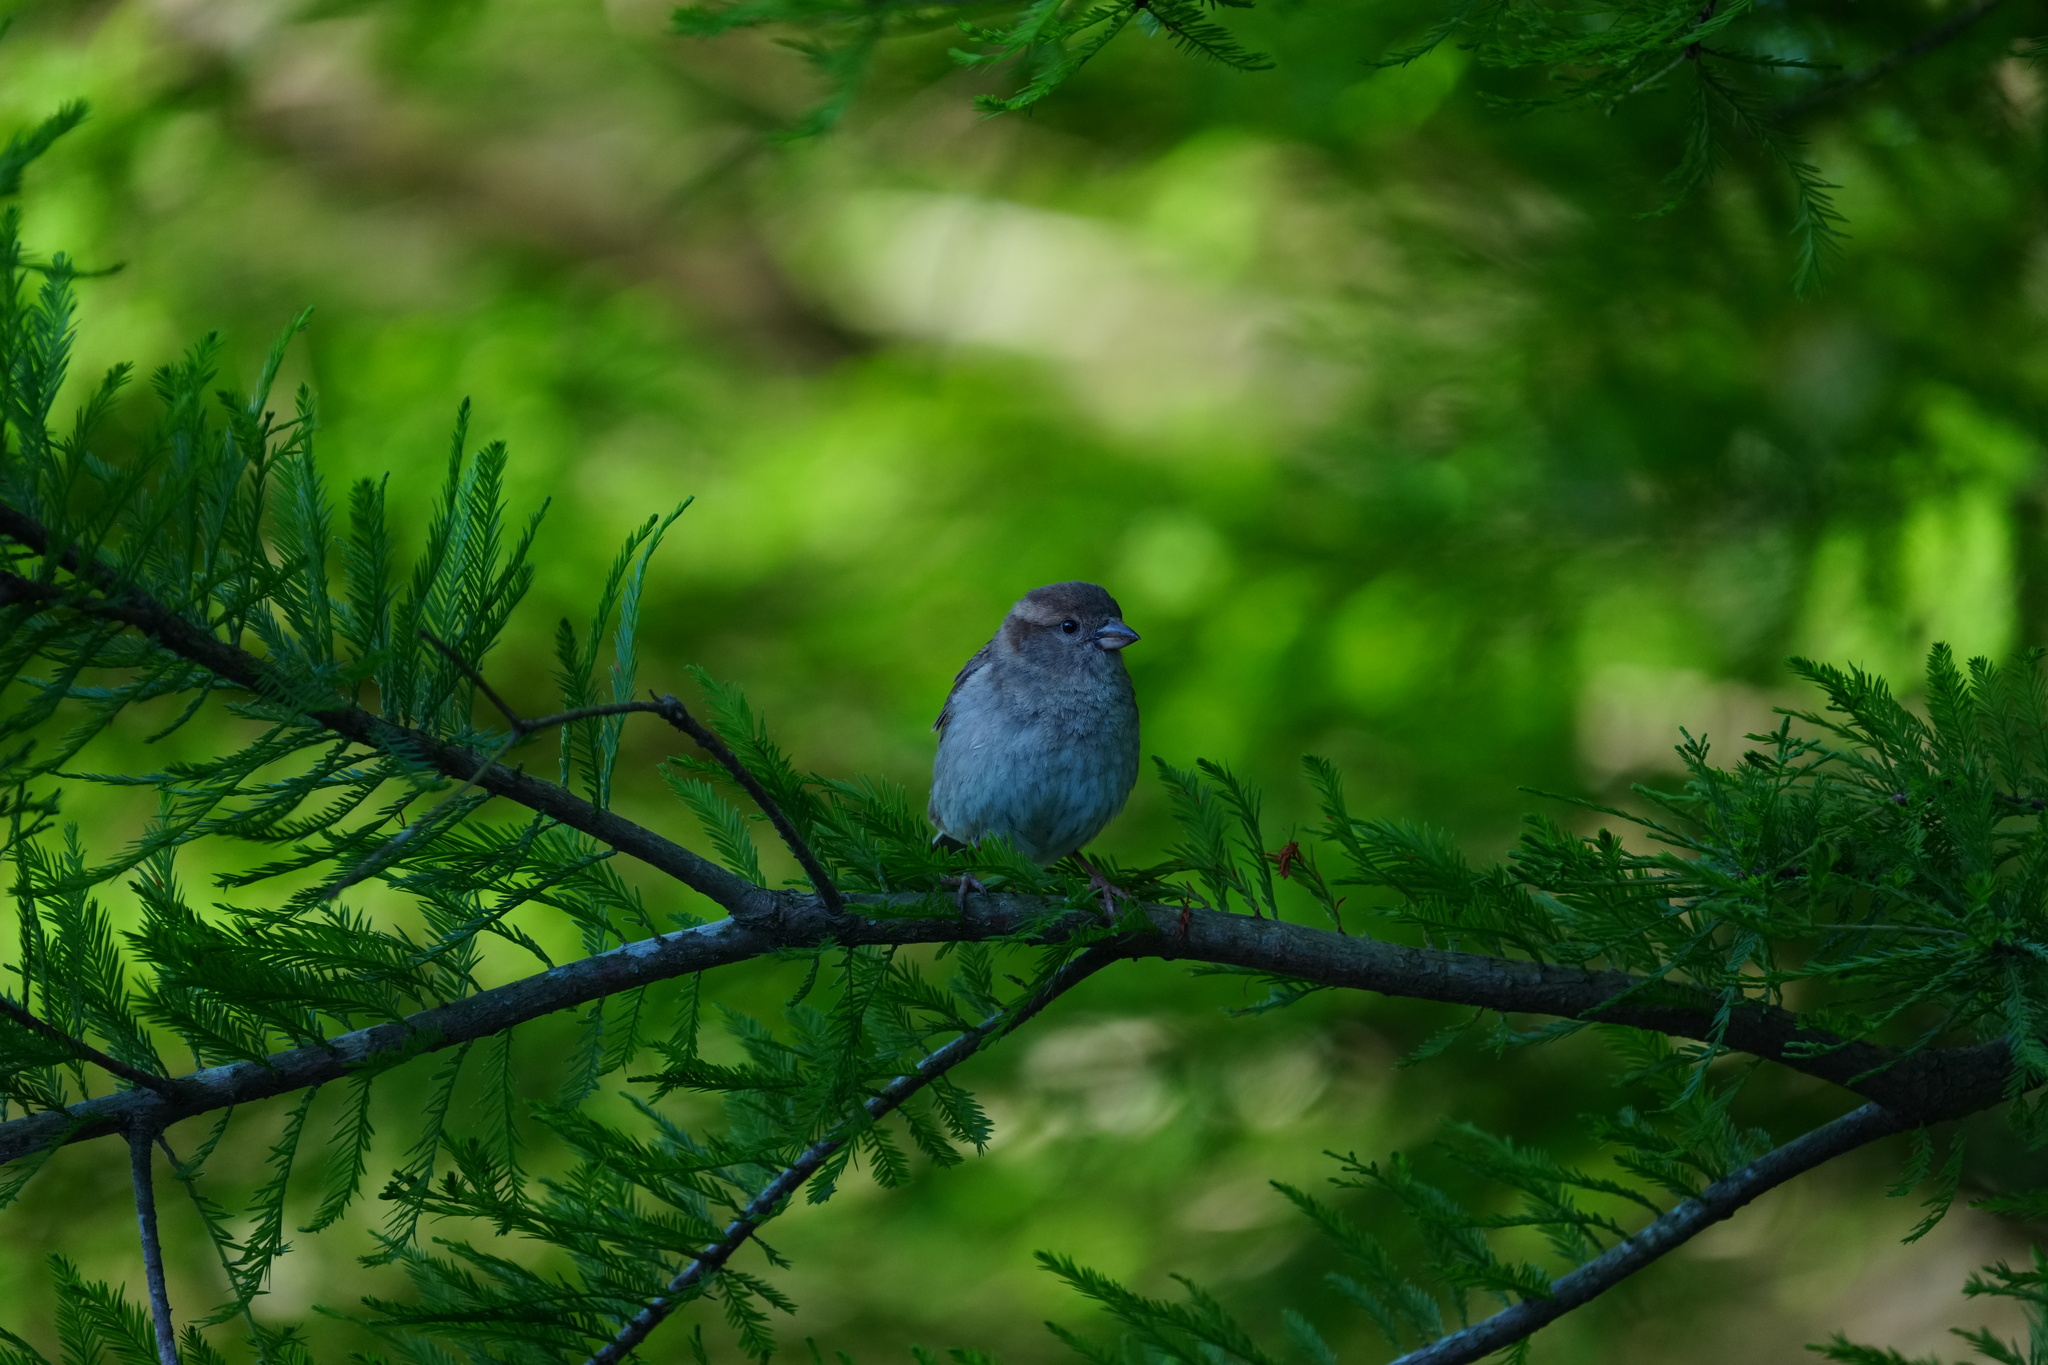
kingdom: Animalia
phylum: Chordata
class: Aves
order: Passeriformes
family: Passeridae
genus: Passer
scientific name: Passer domesticus
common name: House sparrow
